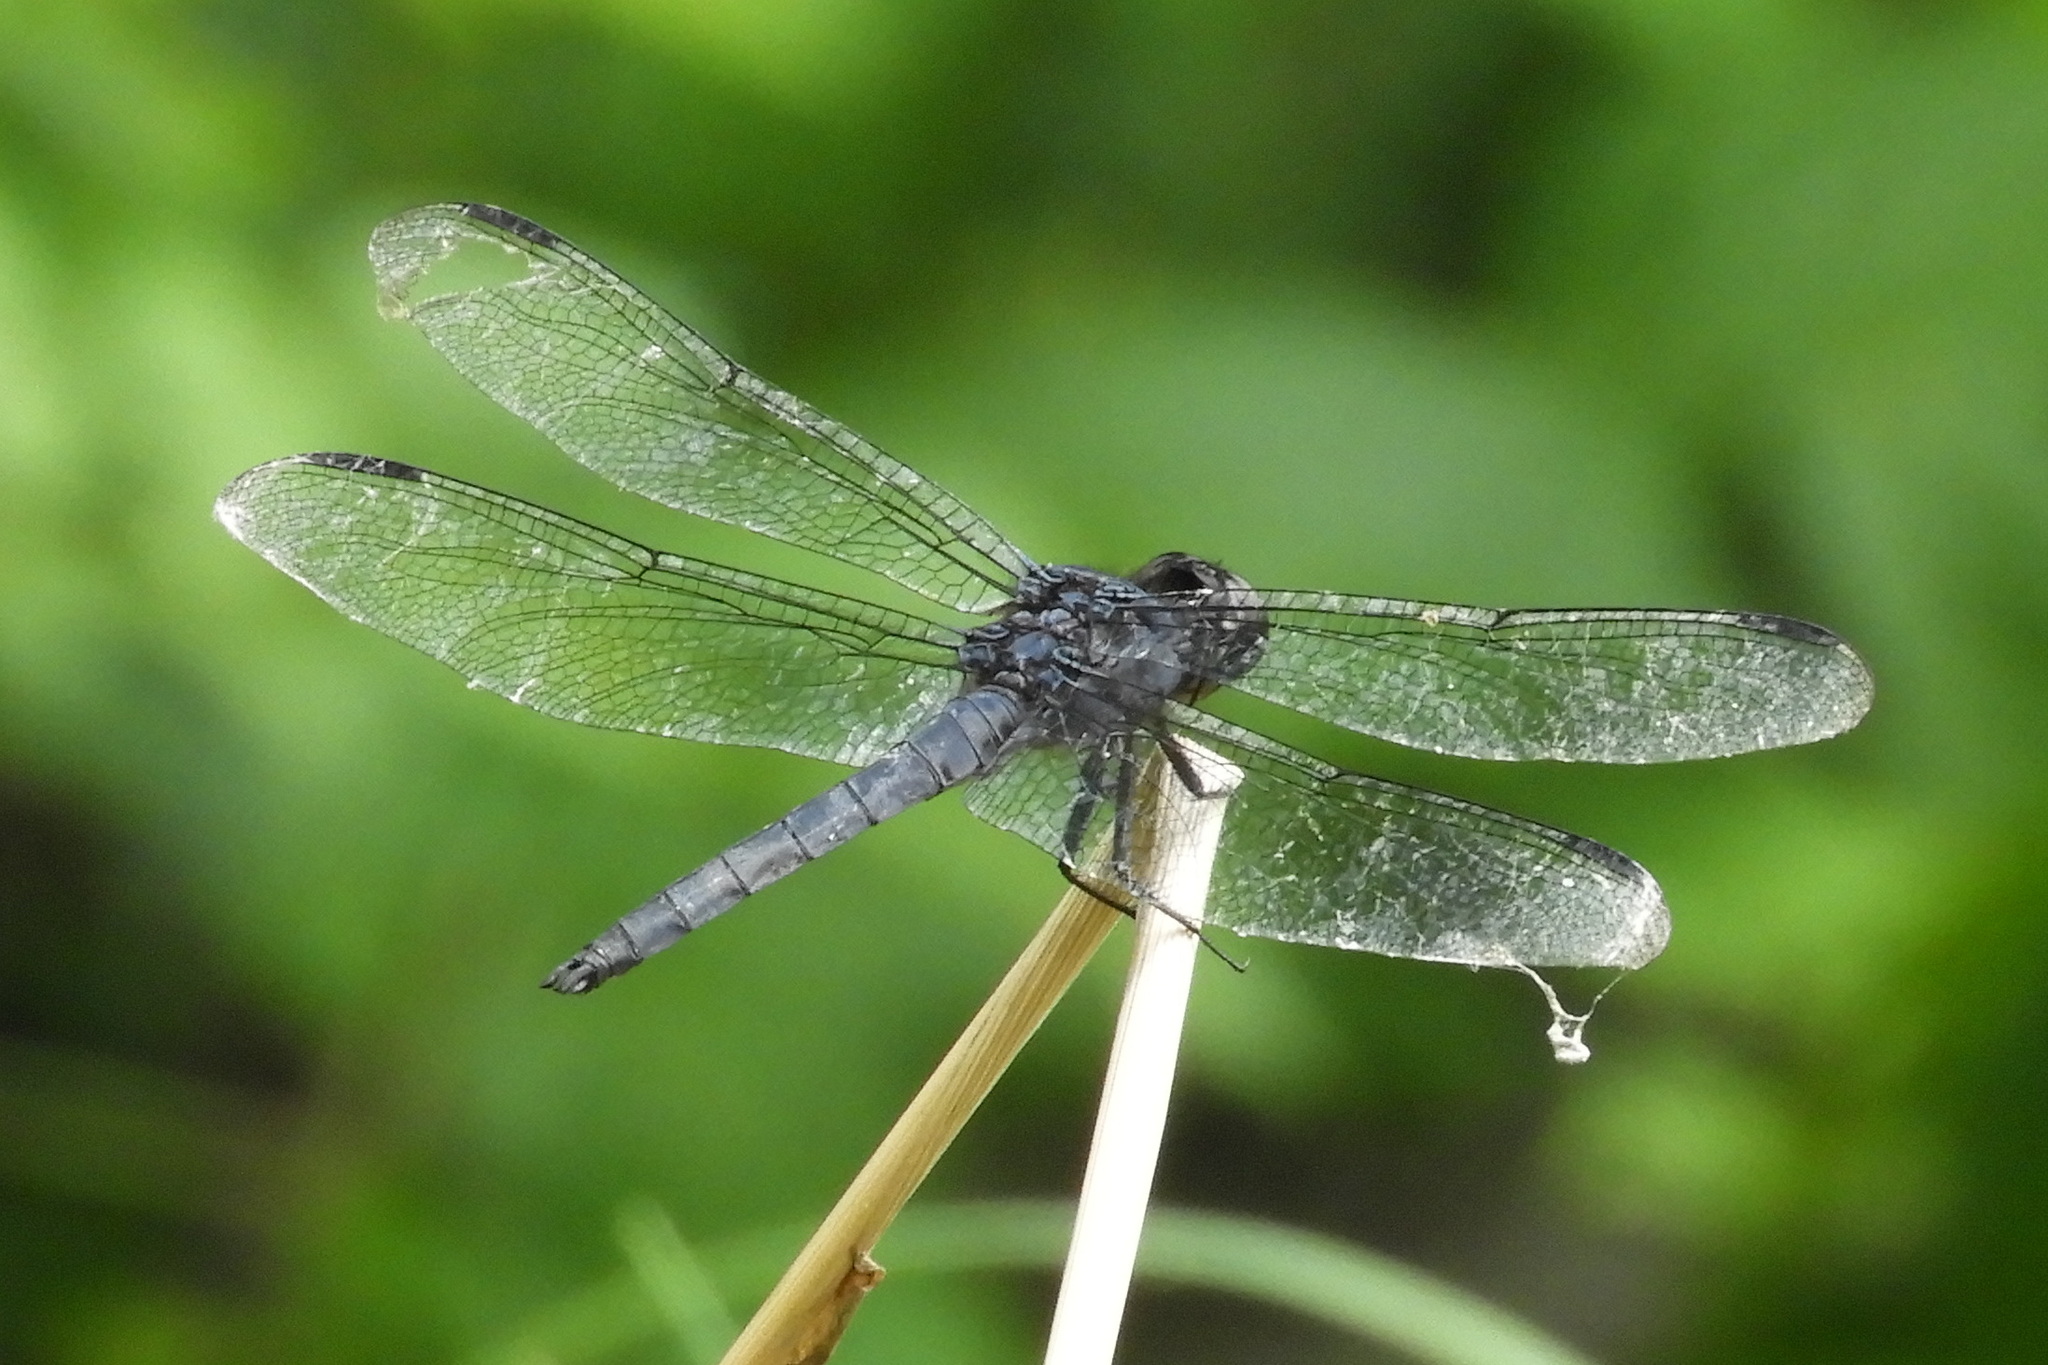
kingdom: Animalia
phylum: Arthropoda
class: Insecta
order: Odonata
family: Libellulidae
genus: Libellula
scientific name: Libellula incesta
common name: Slaty skimmer
